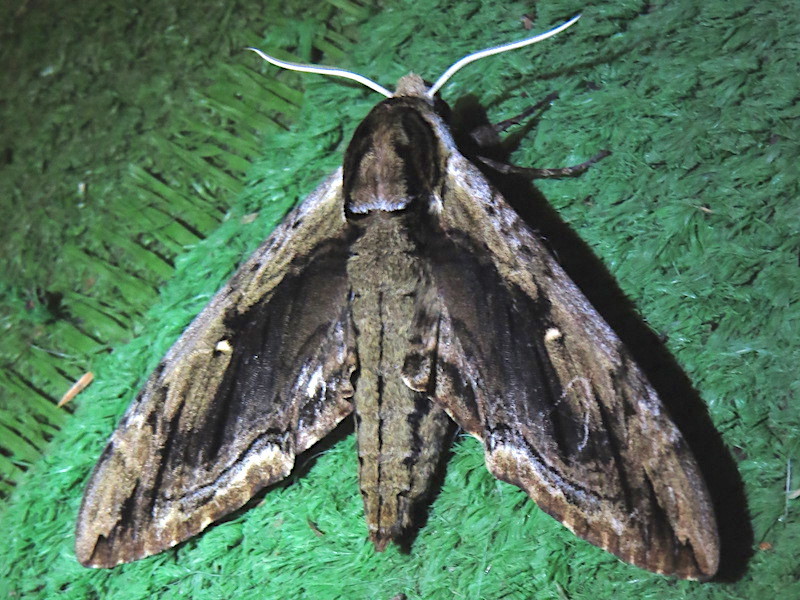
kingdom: Animalia
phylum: Arthropoda
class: Insecta
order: Lepidoptera
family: Sphingidae
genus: Ceratomia
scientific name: Ceratomia amyntor
